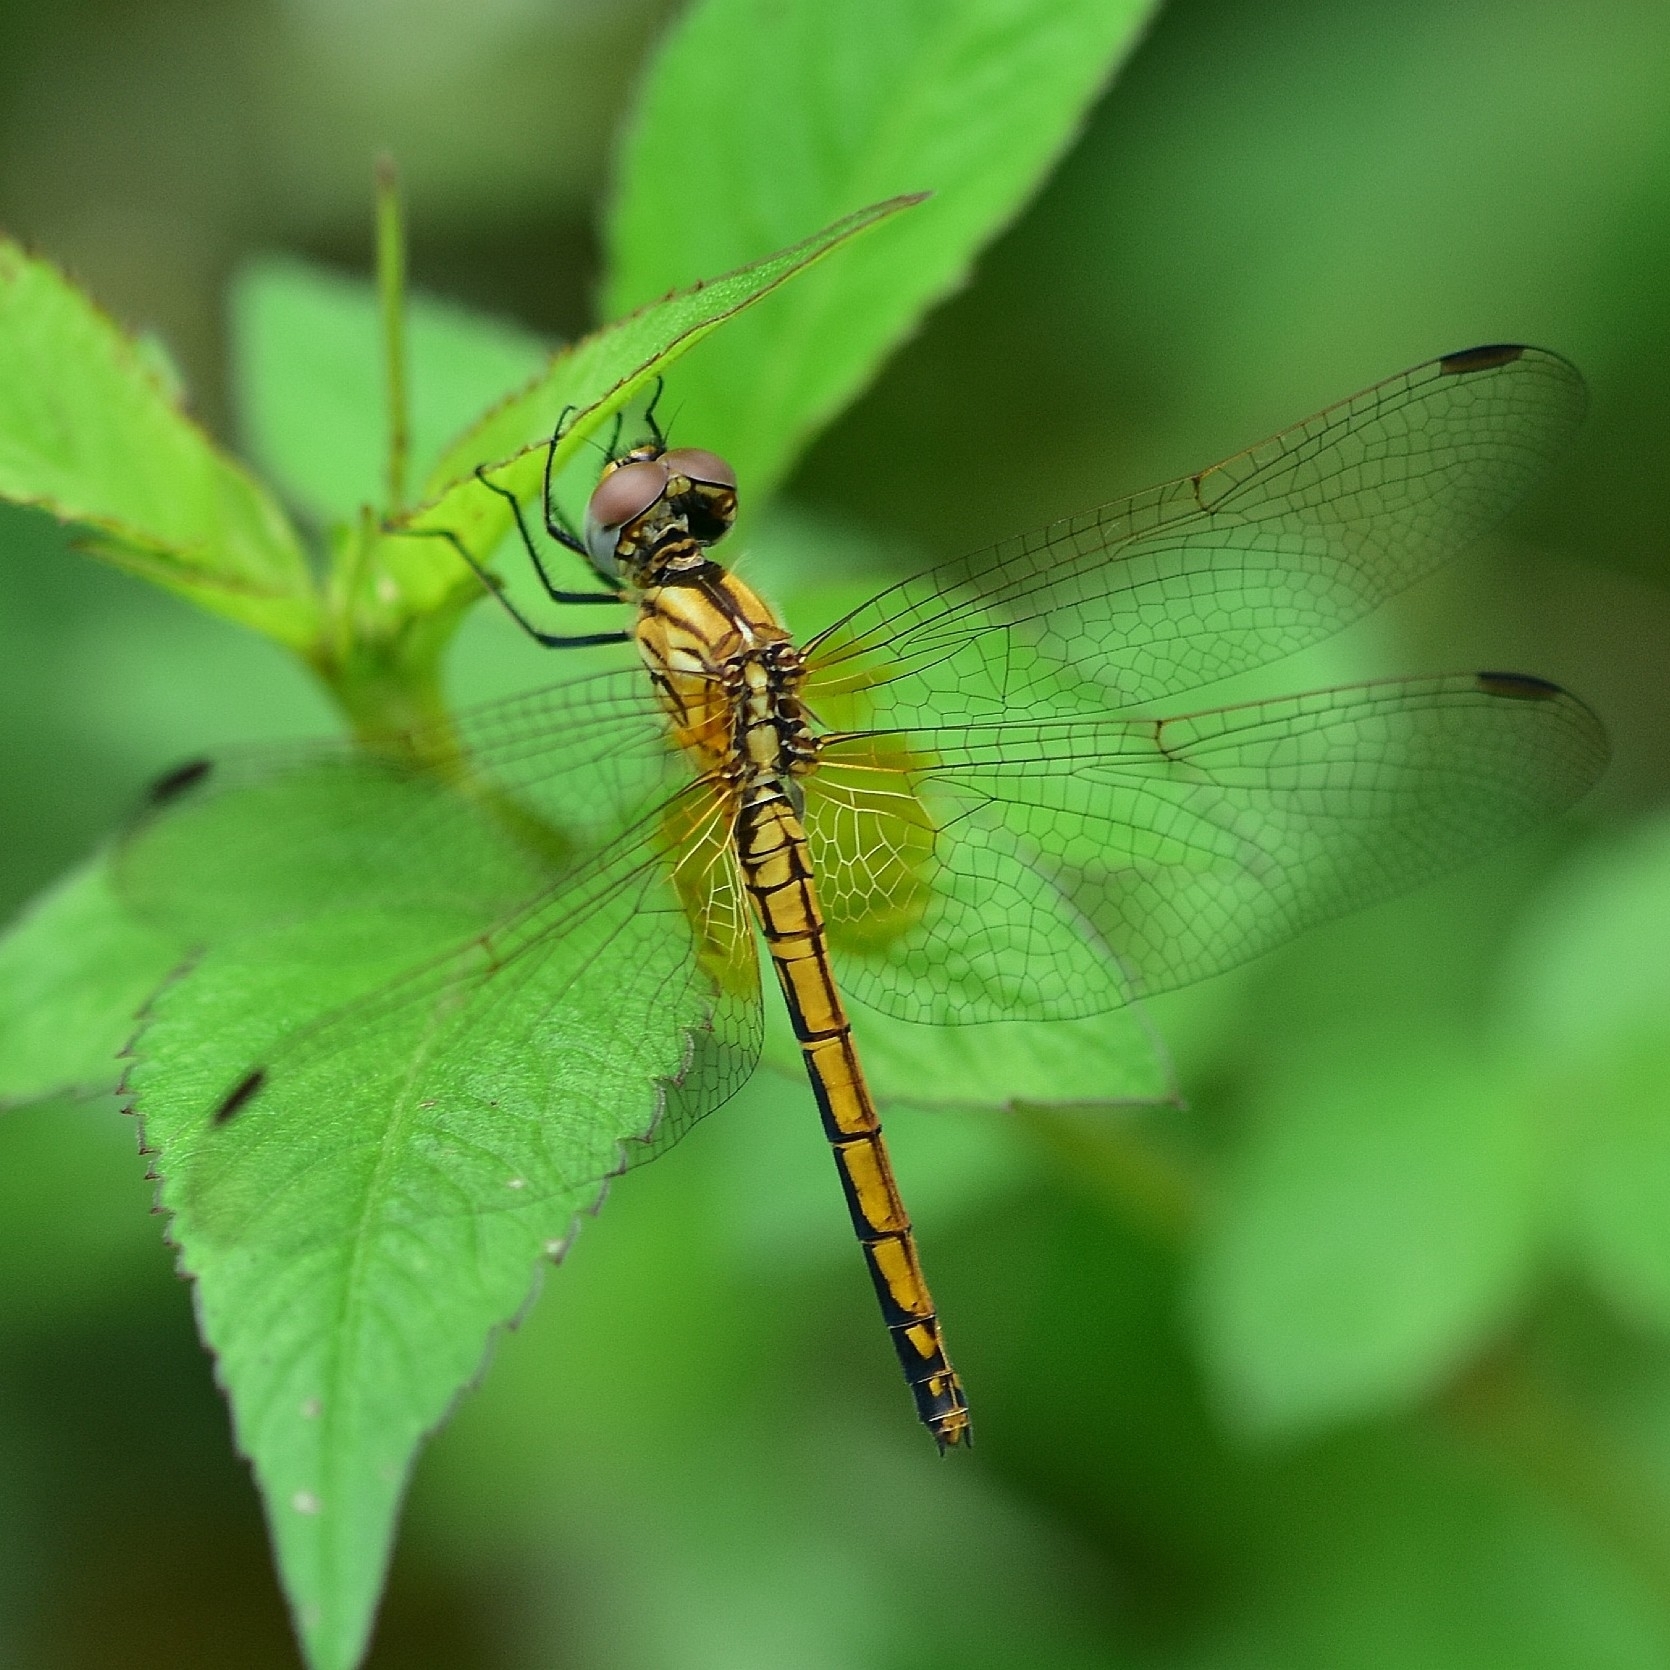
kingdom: Animalia
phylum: Arthropoda
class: Insecta
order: Odonata
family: Libellulidae
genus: Trithemis
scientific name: Trithemis aurora
